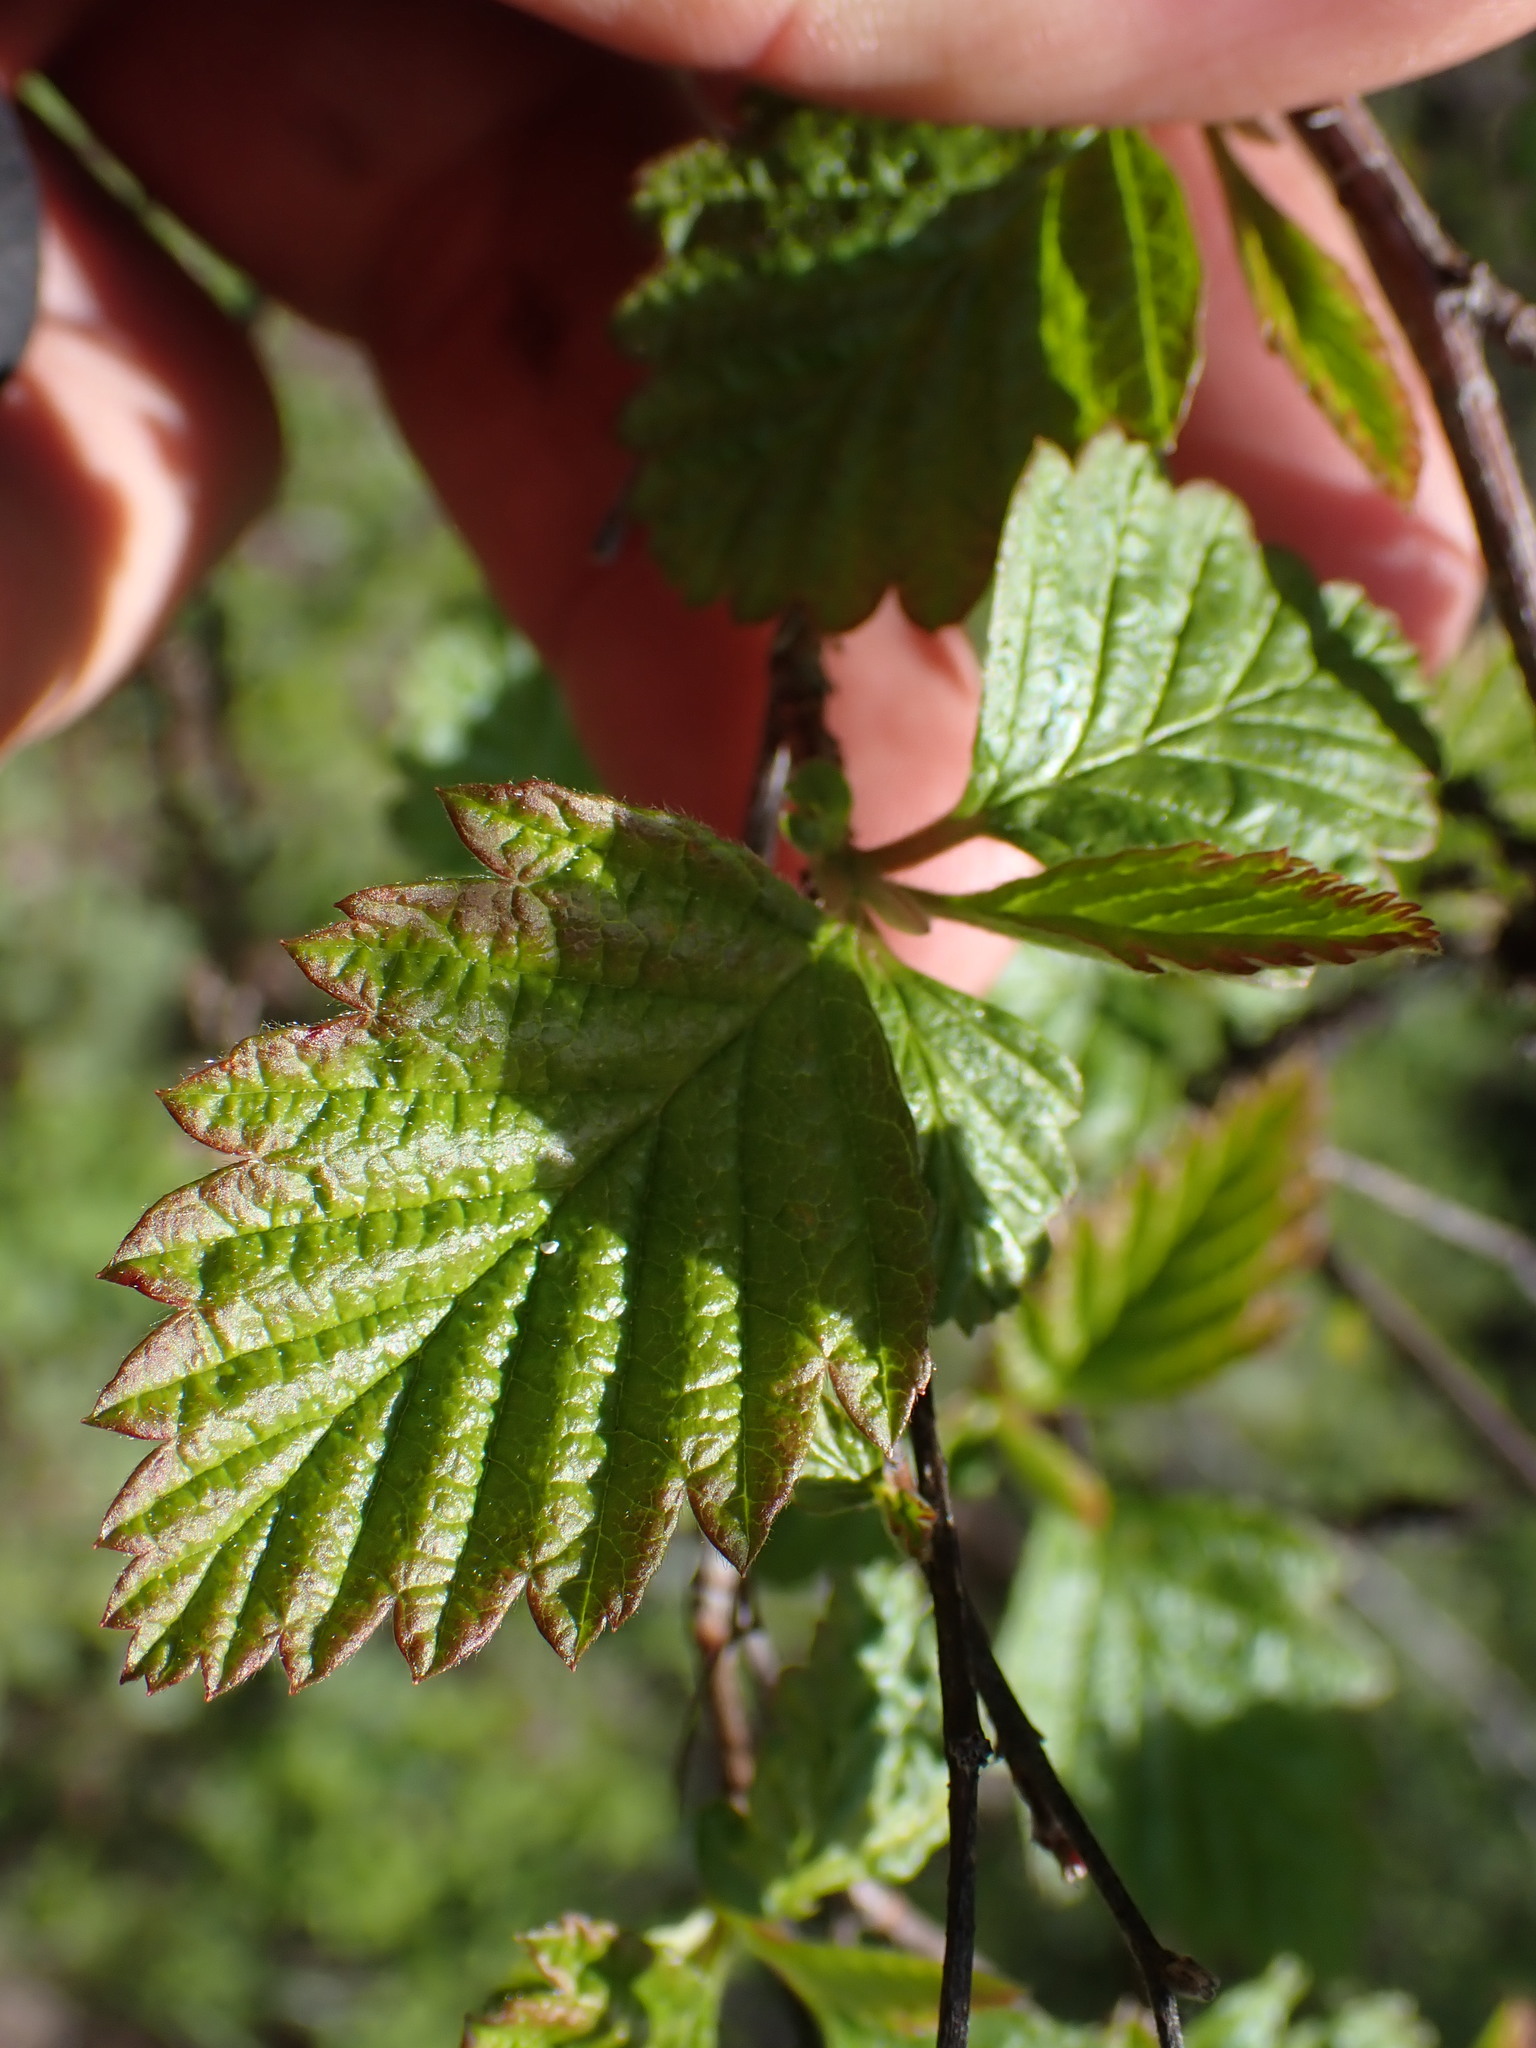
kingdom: Plantae
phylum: Tracheophyta
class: Magnoliopsida
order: Rosales
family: Rosaceae
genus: Holodiscus
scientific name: Holodiscus discolor
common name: Oceanspray
